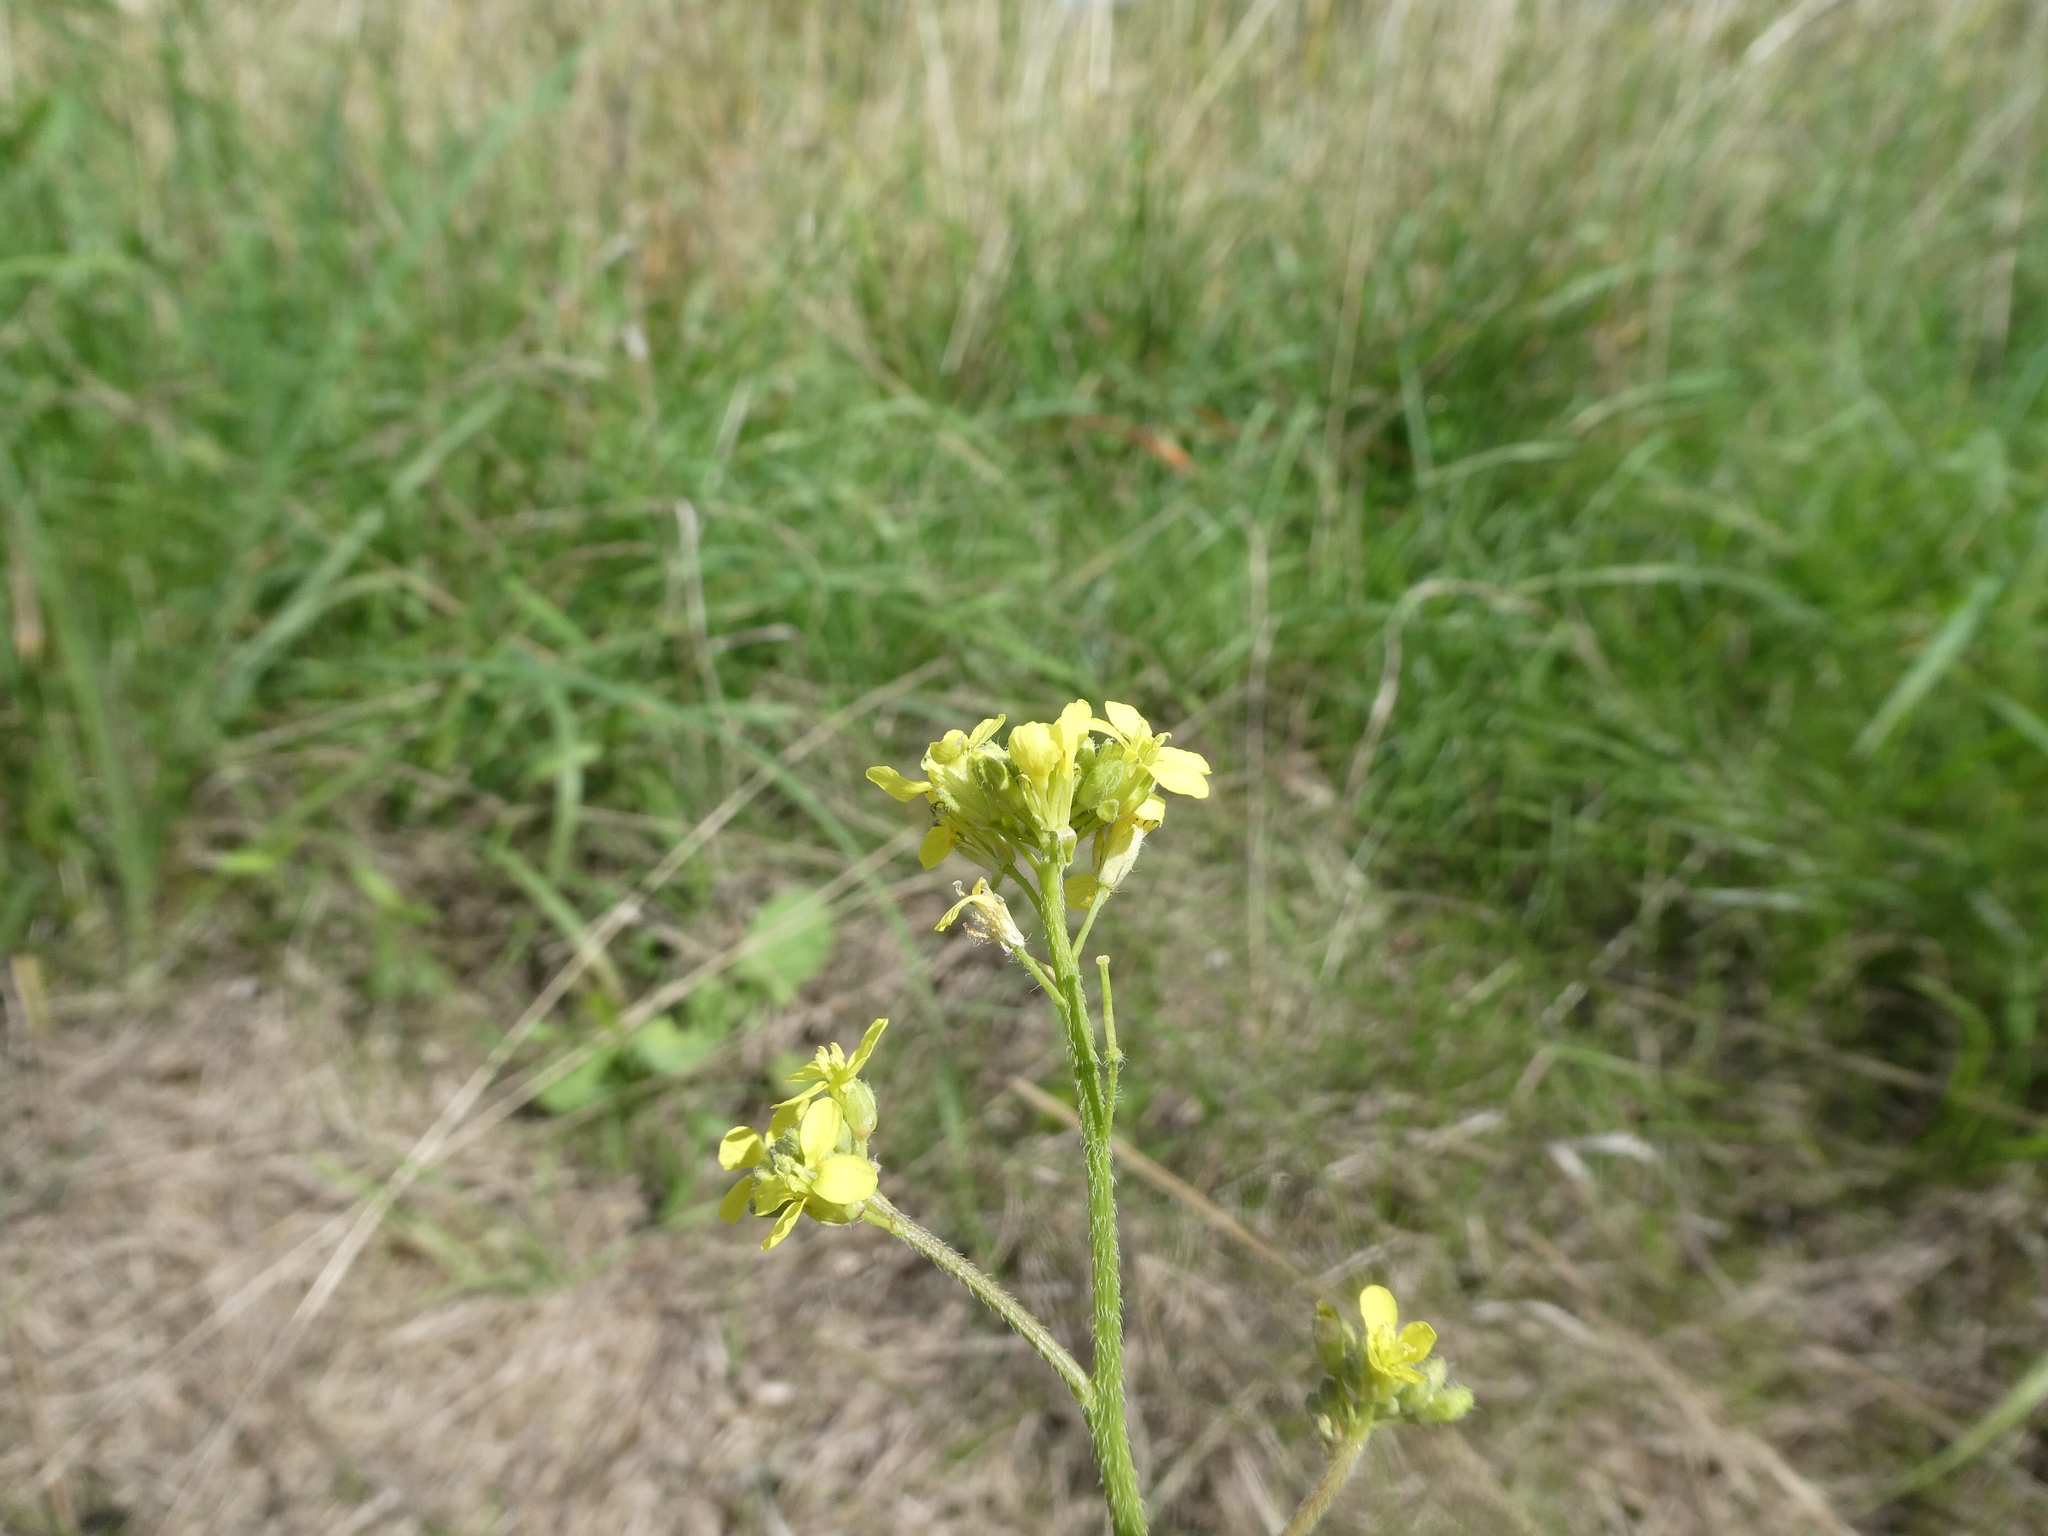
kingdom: Plantae
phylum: Tracheophyta
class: Magnoliopsida
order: Brassicales
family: Brassicaceae
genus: Raphanus
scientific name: Raphanus raphanistrum
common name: Wild radish
